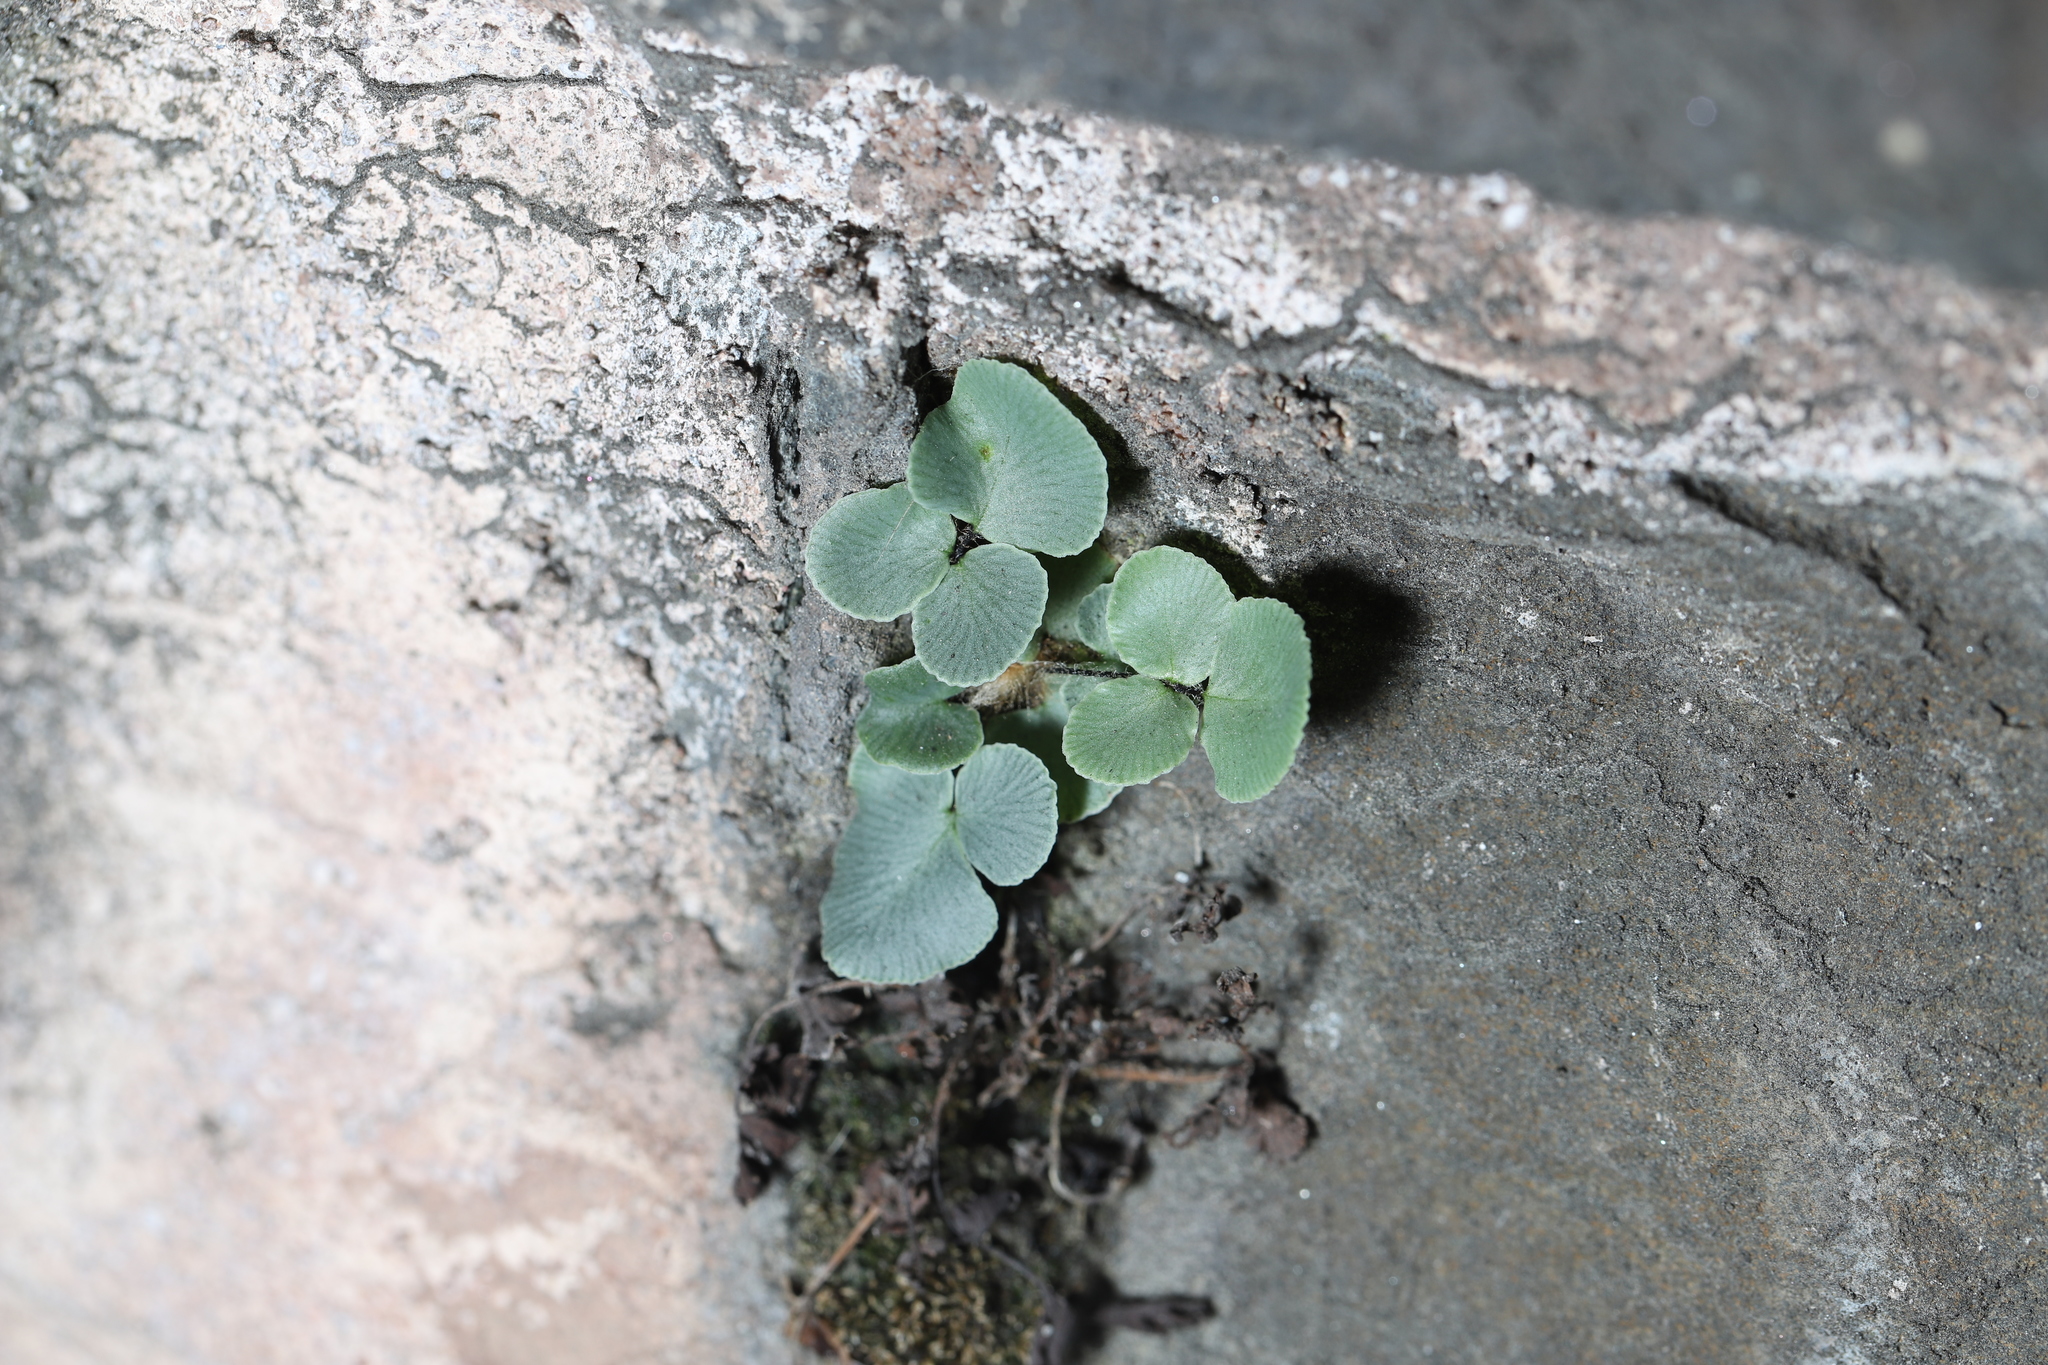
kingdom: Plantae
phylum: Tracheophyta
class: Polypodiopsida
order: Polypodiales
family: Pteridaceae
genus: Pellaea
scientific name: Pellaea atropurpurea
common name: Hairy cliffbrake
